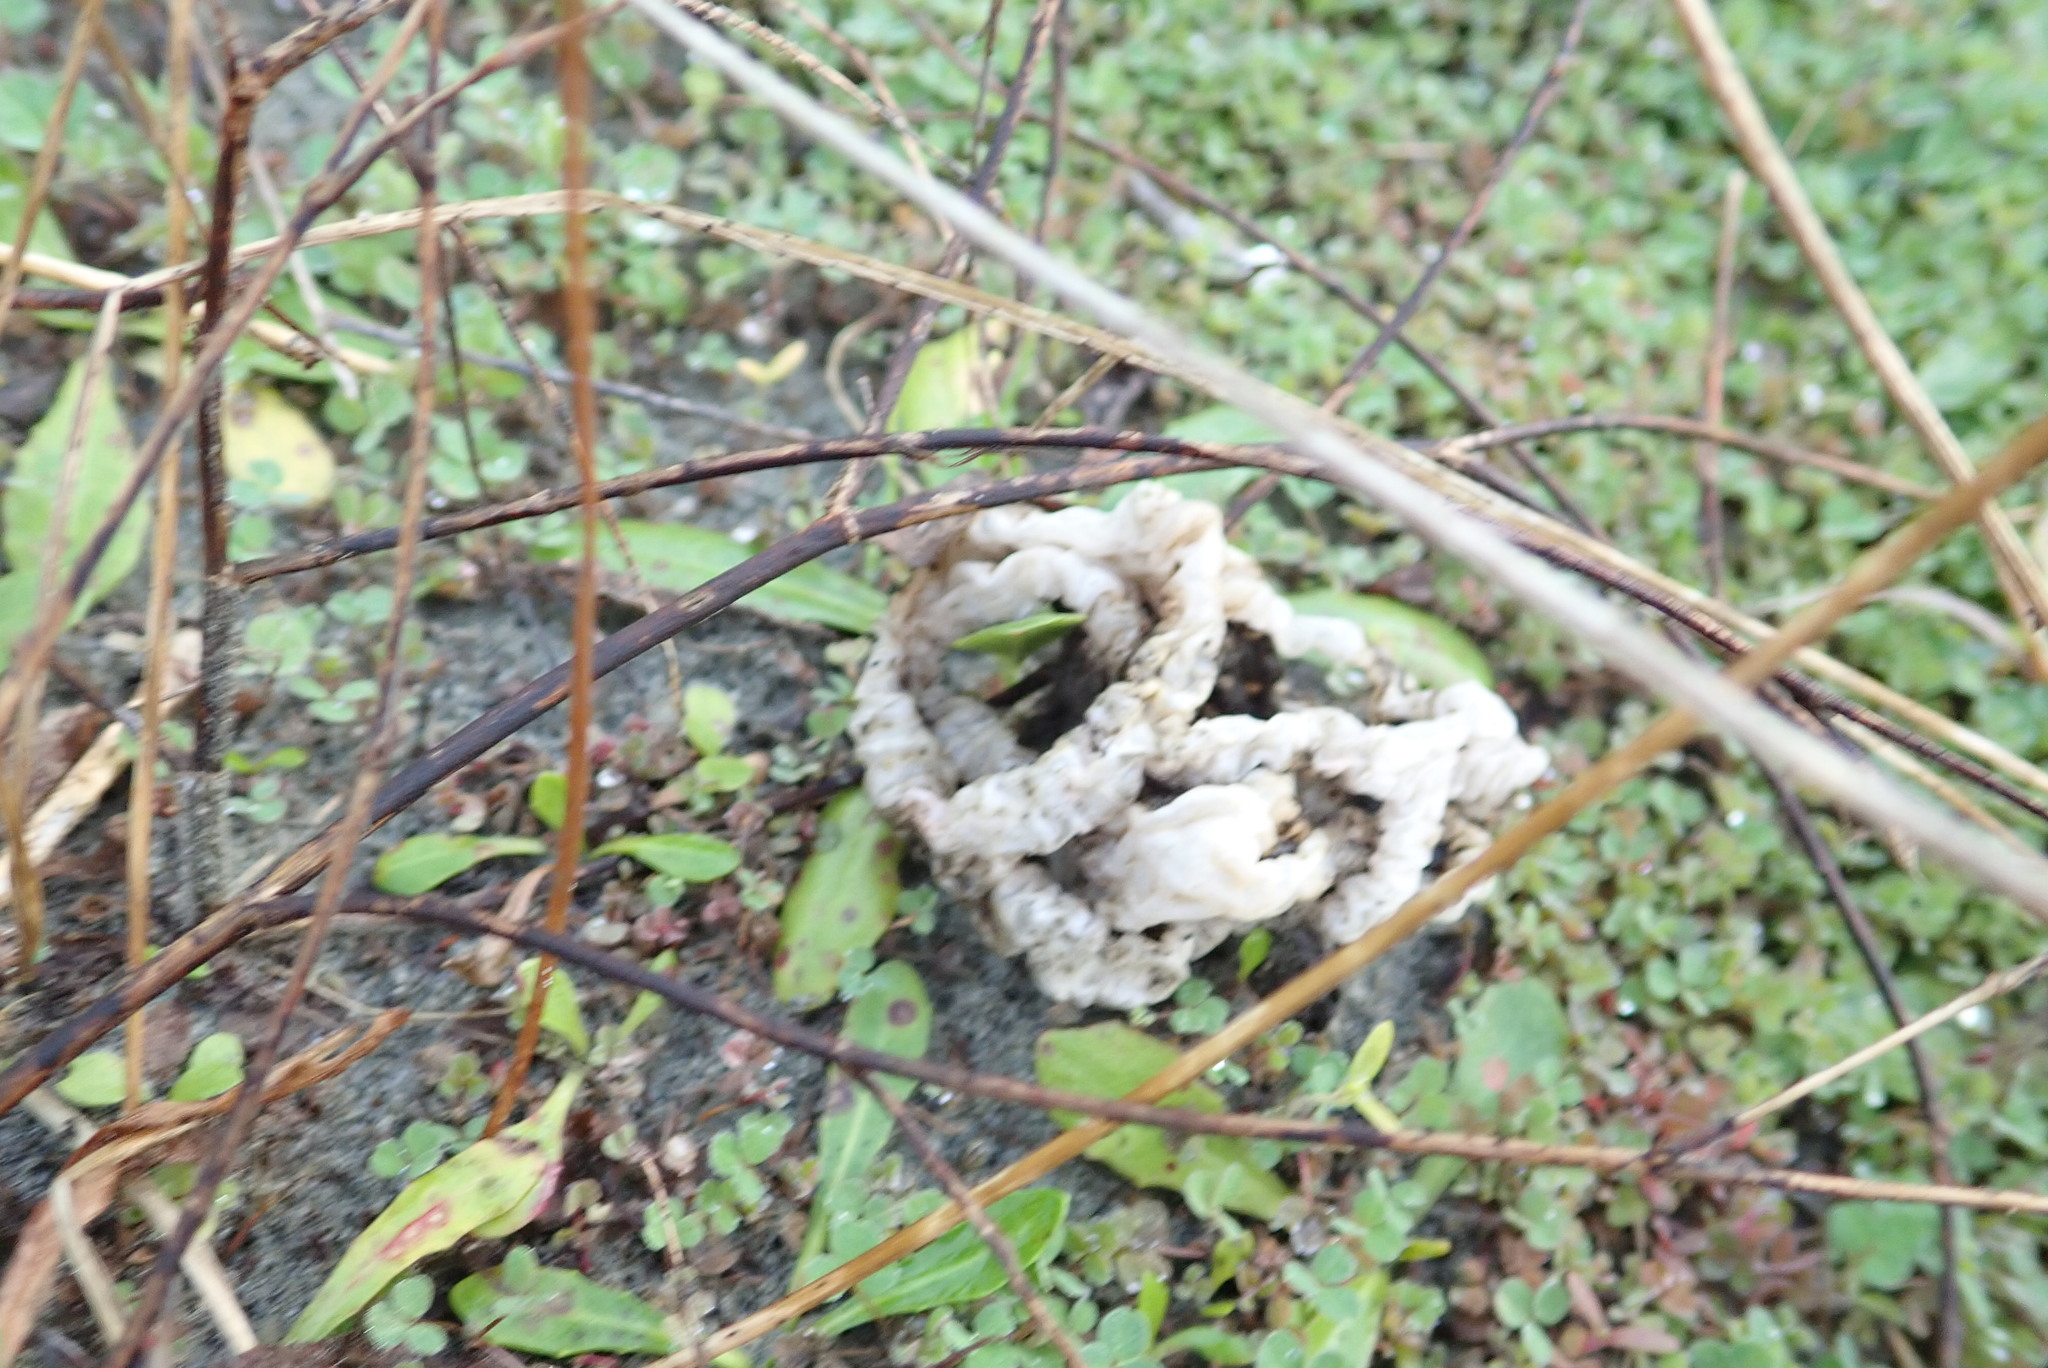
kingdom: Fungi
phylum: Basidiomycota
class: Agaricomycetes
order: Phallales
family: Phallaceae
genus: Ileodictyon
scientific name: Ileodictyon cibarium
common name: Basket fungus
